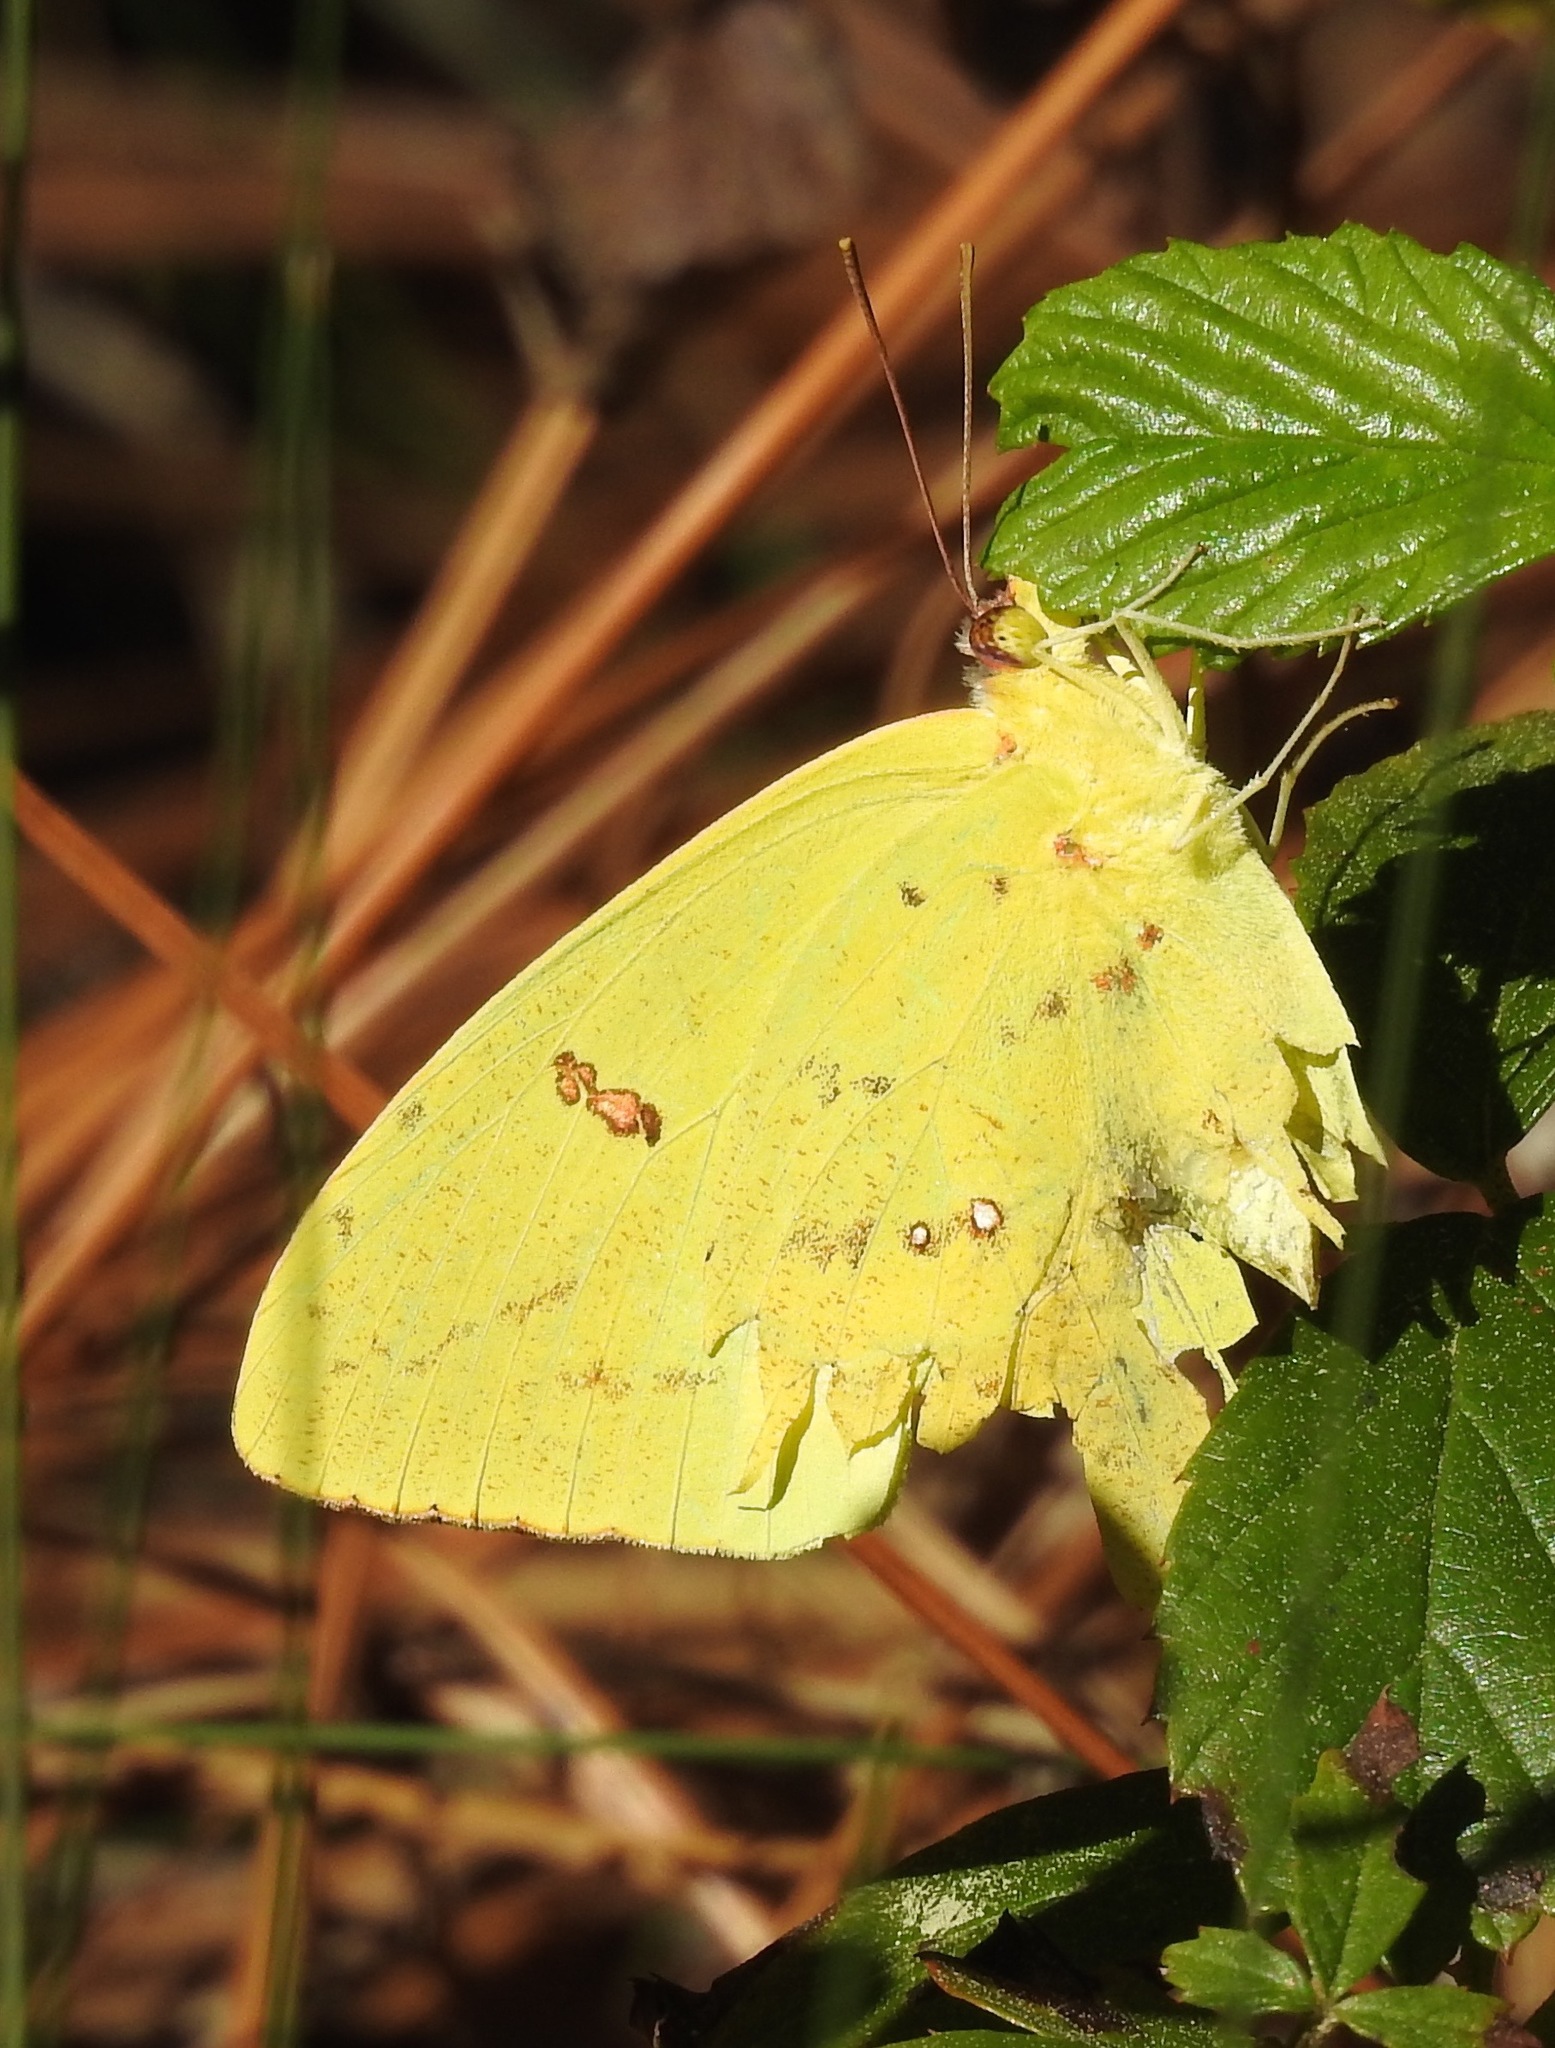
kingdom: Animalia
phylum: Arthropoda
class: Insecta
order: Lepidoptera
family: Pieridae
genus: Phoebis
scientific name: Phoebis sennae
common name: Cloudless sulphur
